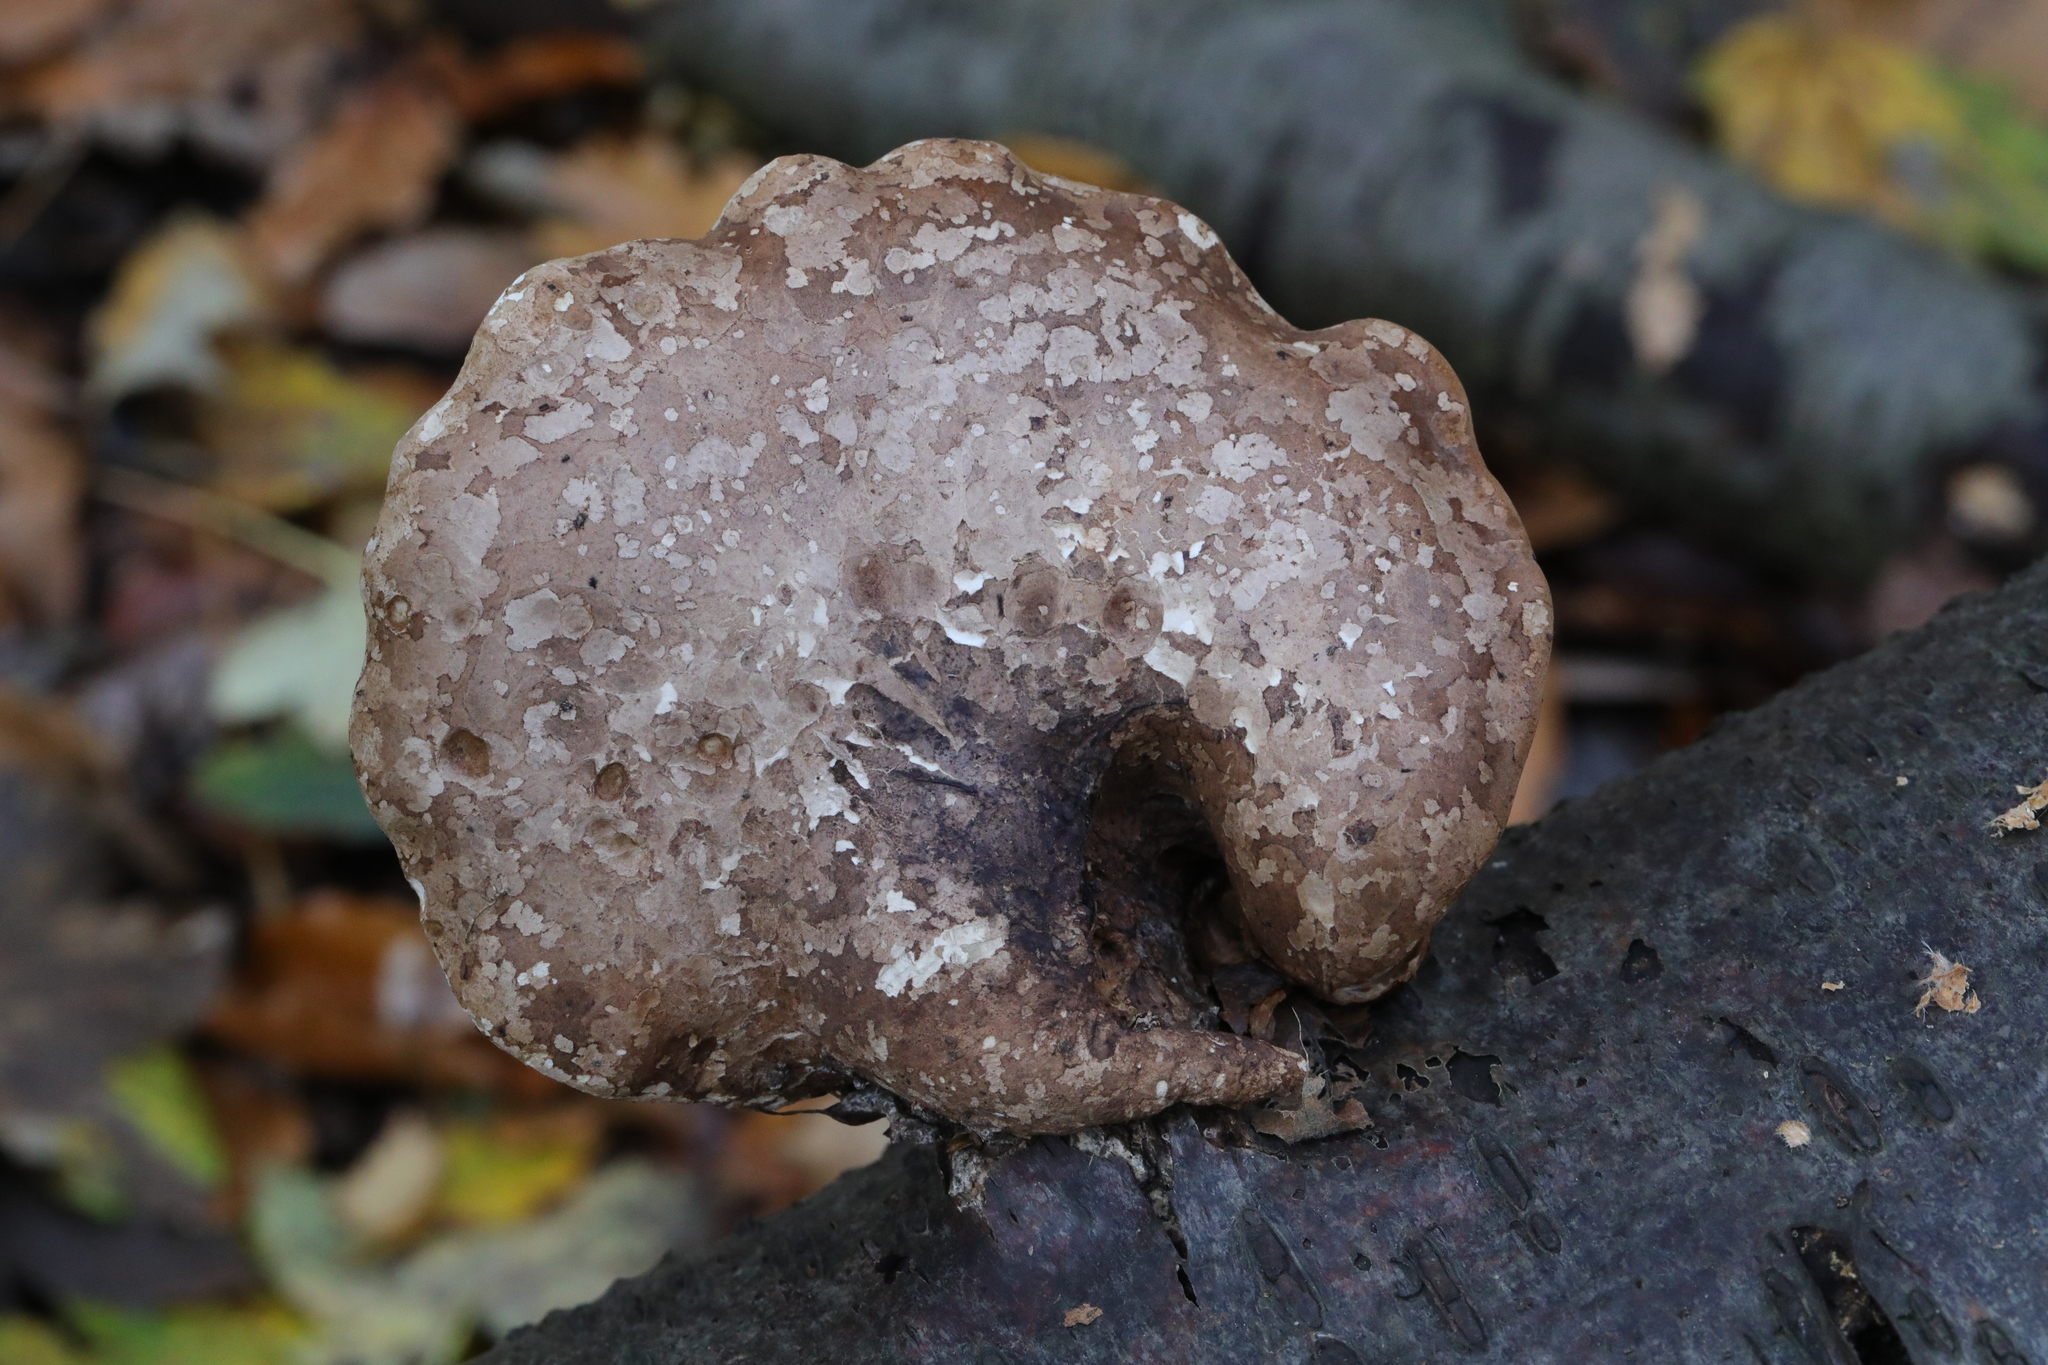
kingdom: Fungi
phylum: Basidiomycota
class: Agaricomycetes
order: Polyporales
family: Fomitopsidaceae
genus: Fomitopsis
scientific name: Fomitopsis betulina
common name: Birch polypore
